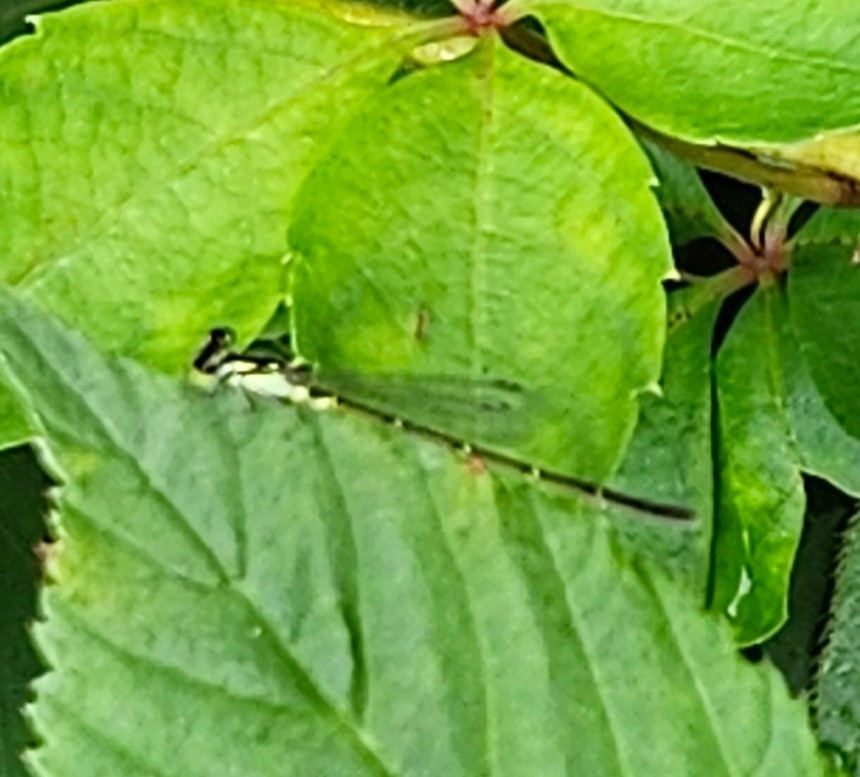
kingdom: Animalia
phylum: Arthropoda
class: Insecta
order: Odonata
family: Coenagrionidae
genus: Ischnura
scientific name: Ischnura posita
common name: Fragile forktail
